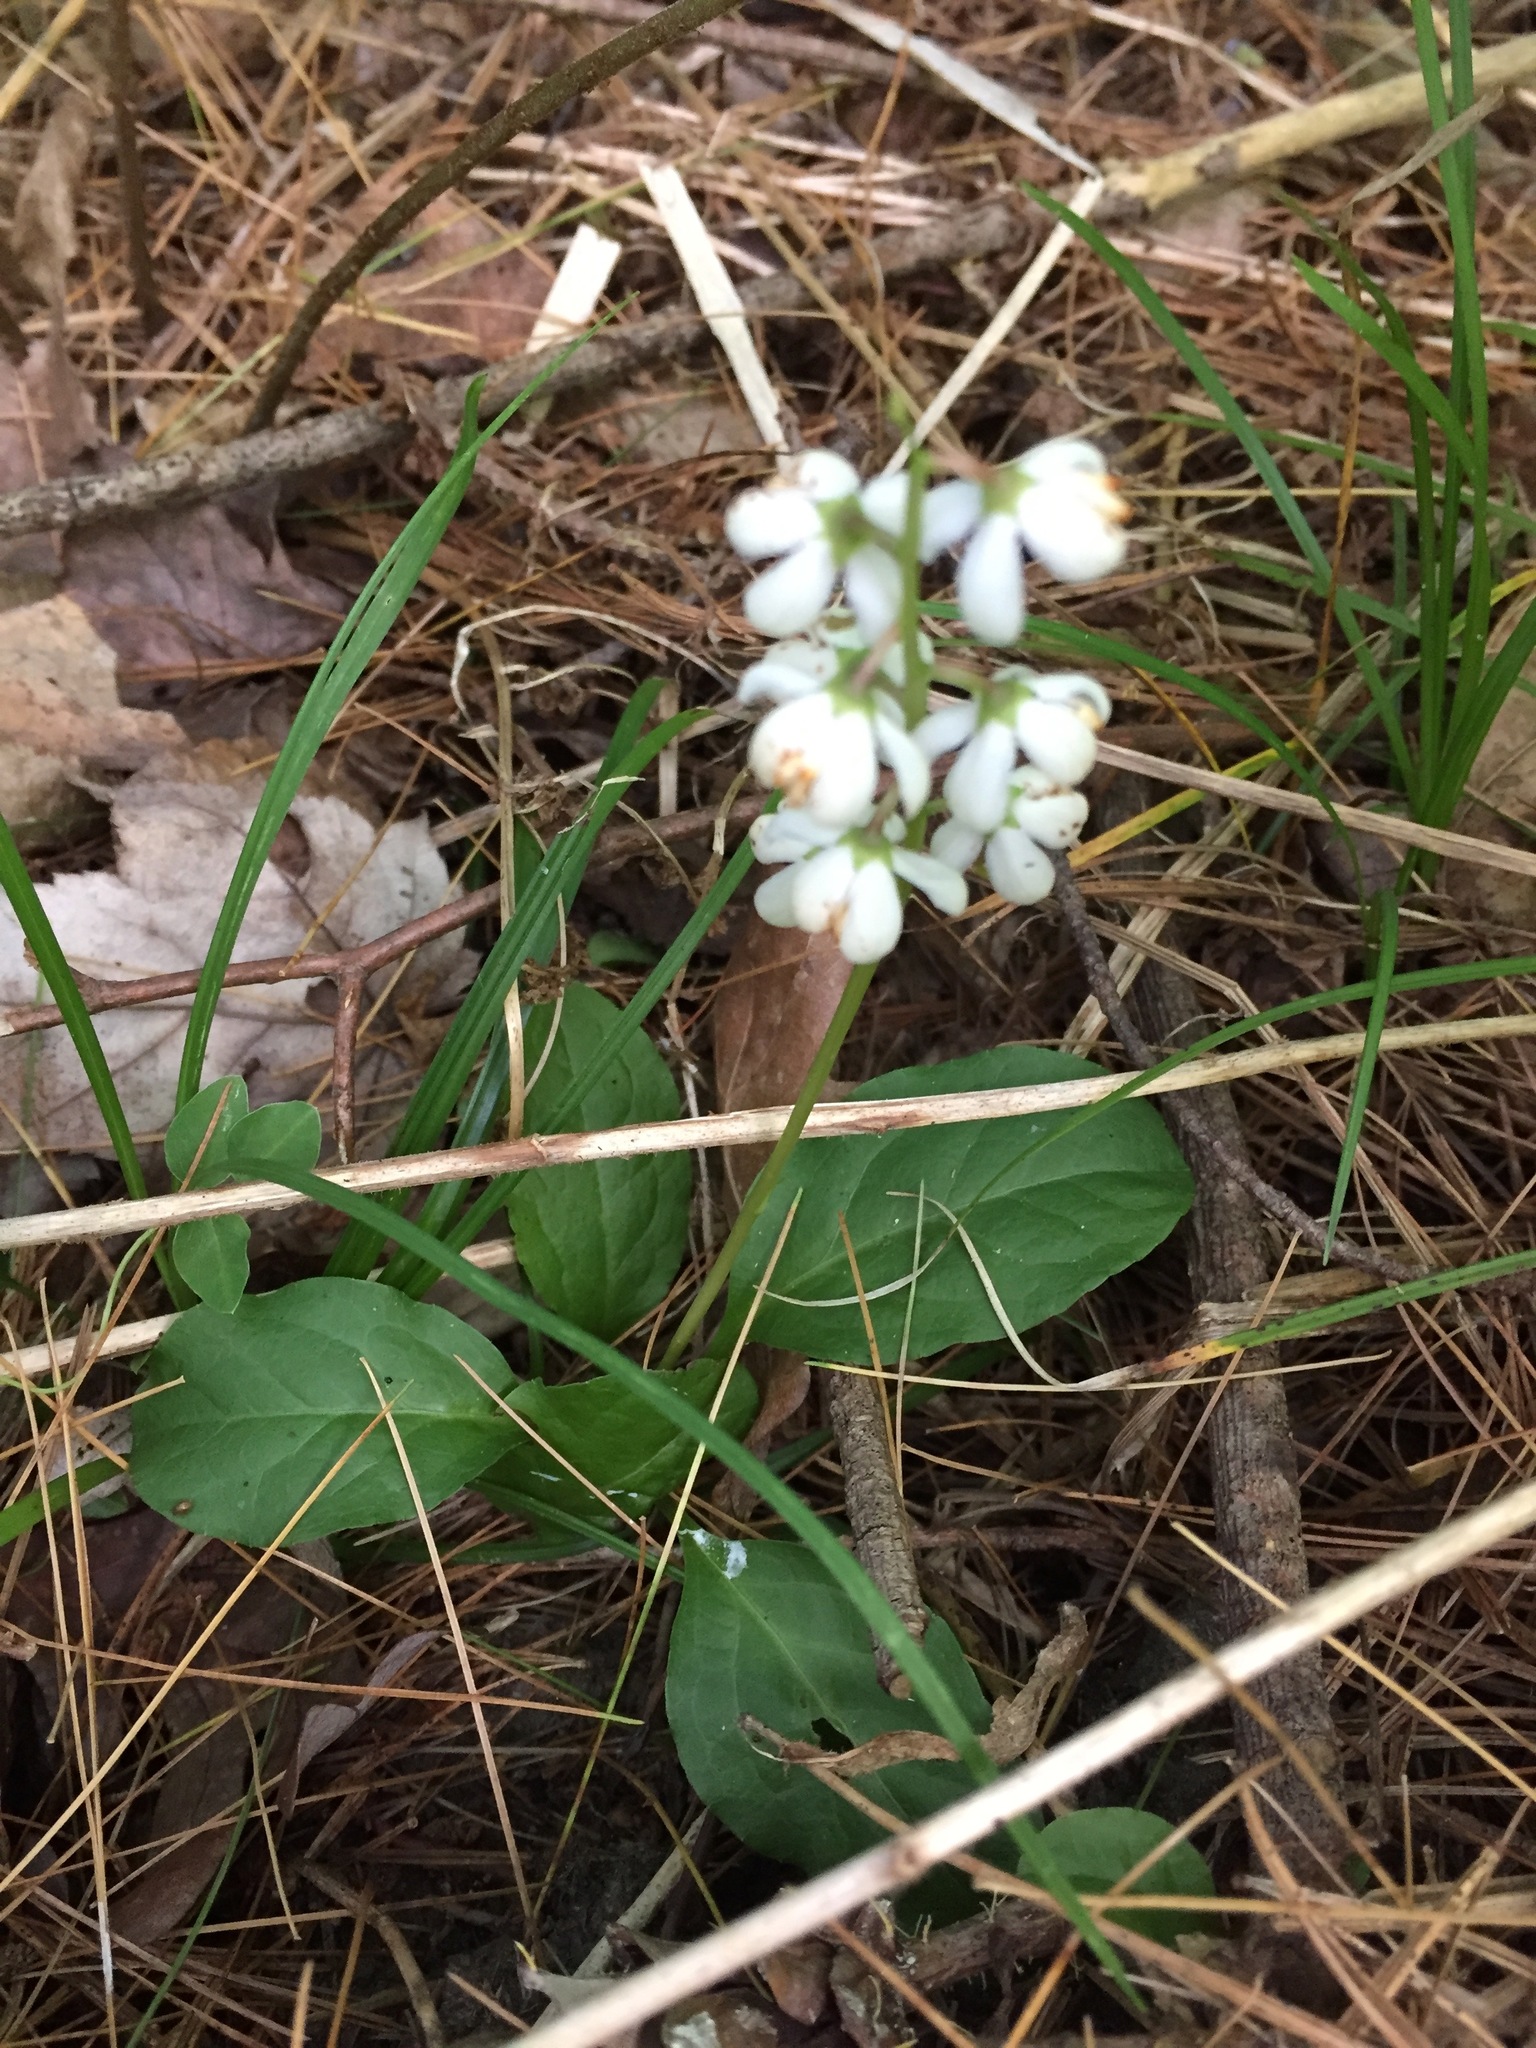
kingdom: Plantae
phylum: Tracheophyta
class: Magnoliopsida
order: Ericales
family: Ericaceae
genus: Pyrola
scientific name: Pyrola elliptica
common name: Shinleaf
